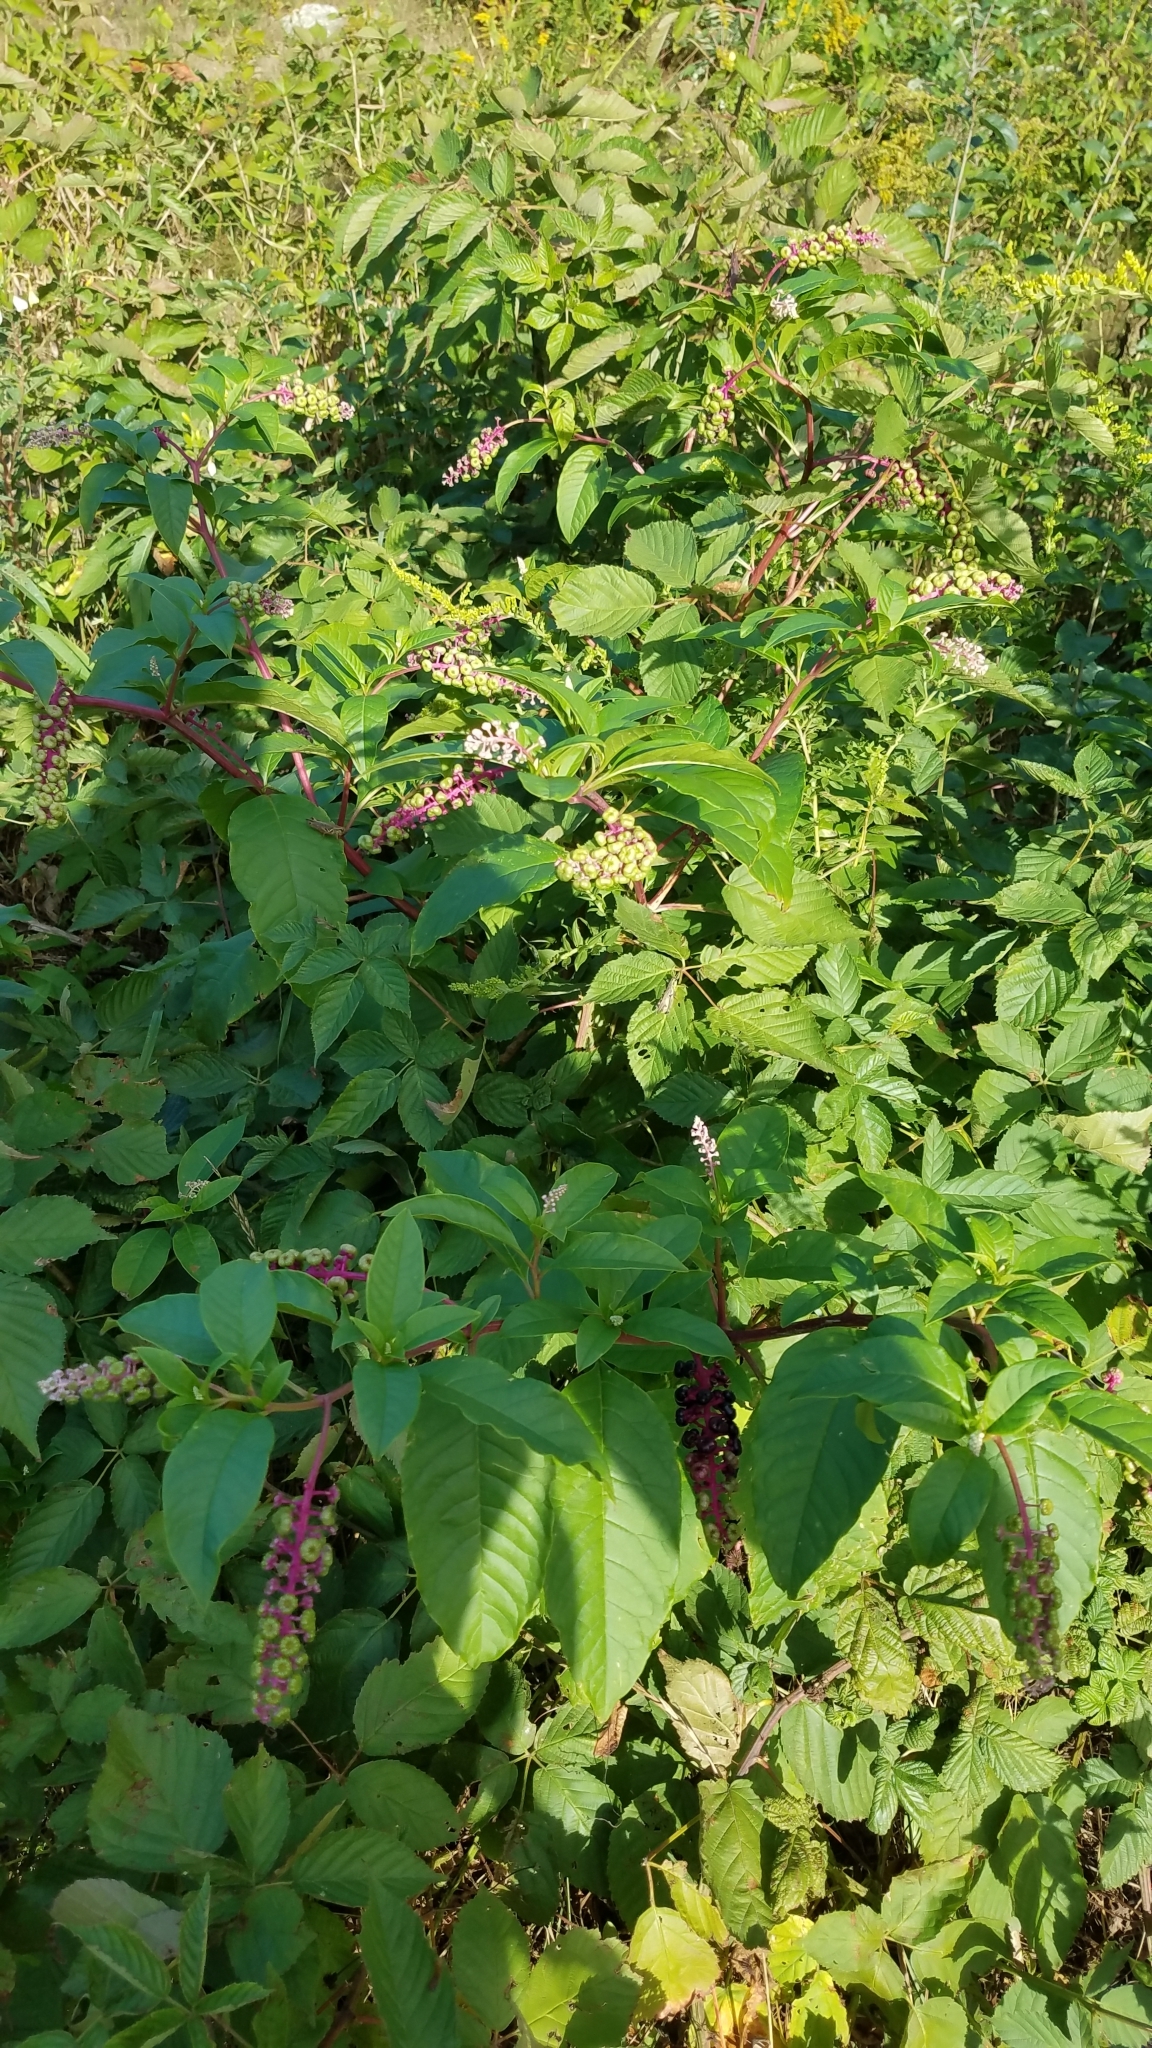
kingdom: Plantae
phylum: Tracheophyta
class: Magnoliopsida
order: Caryophyllales
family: Phytolaccaceae
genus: Phytolacca
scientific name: Phytolacca americana
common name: American pokeweed
